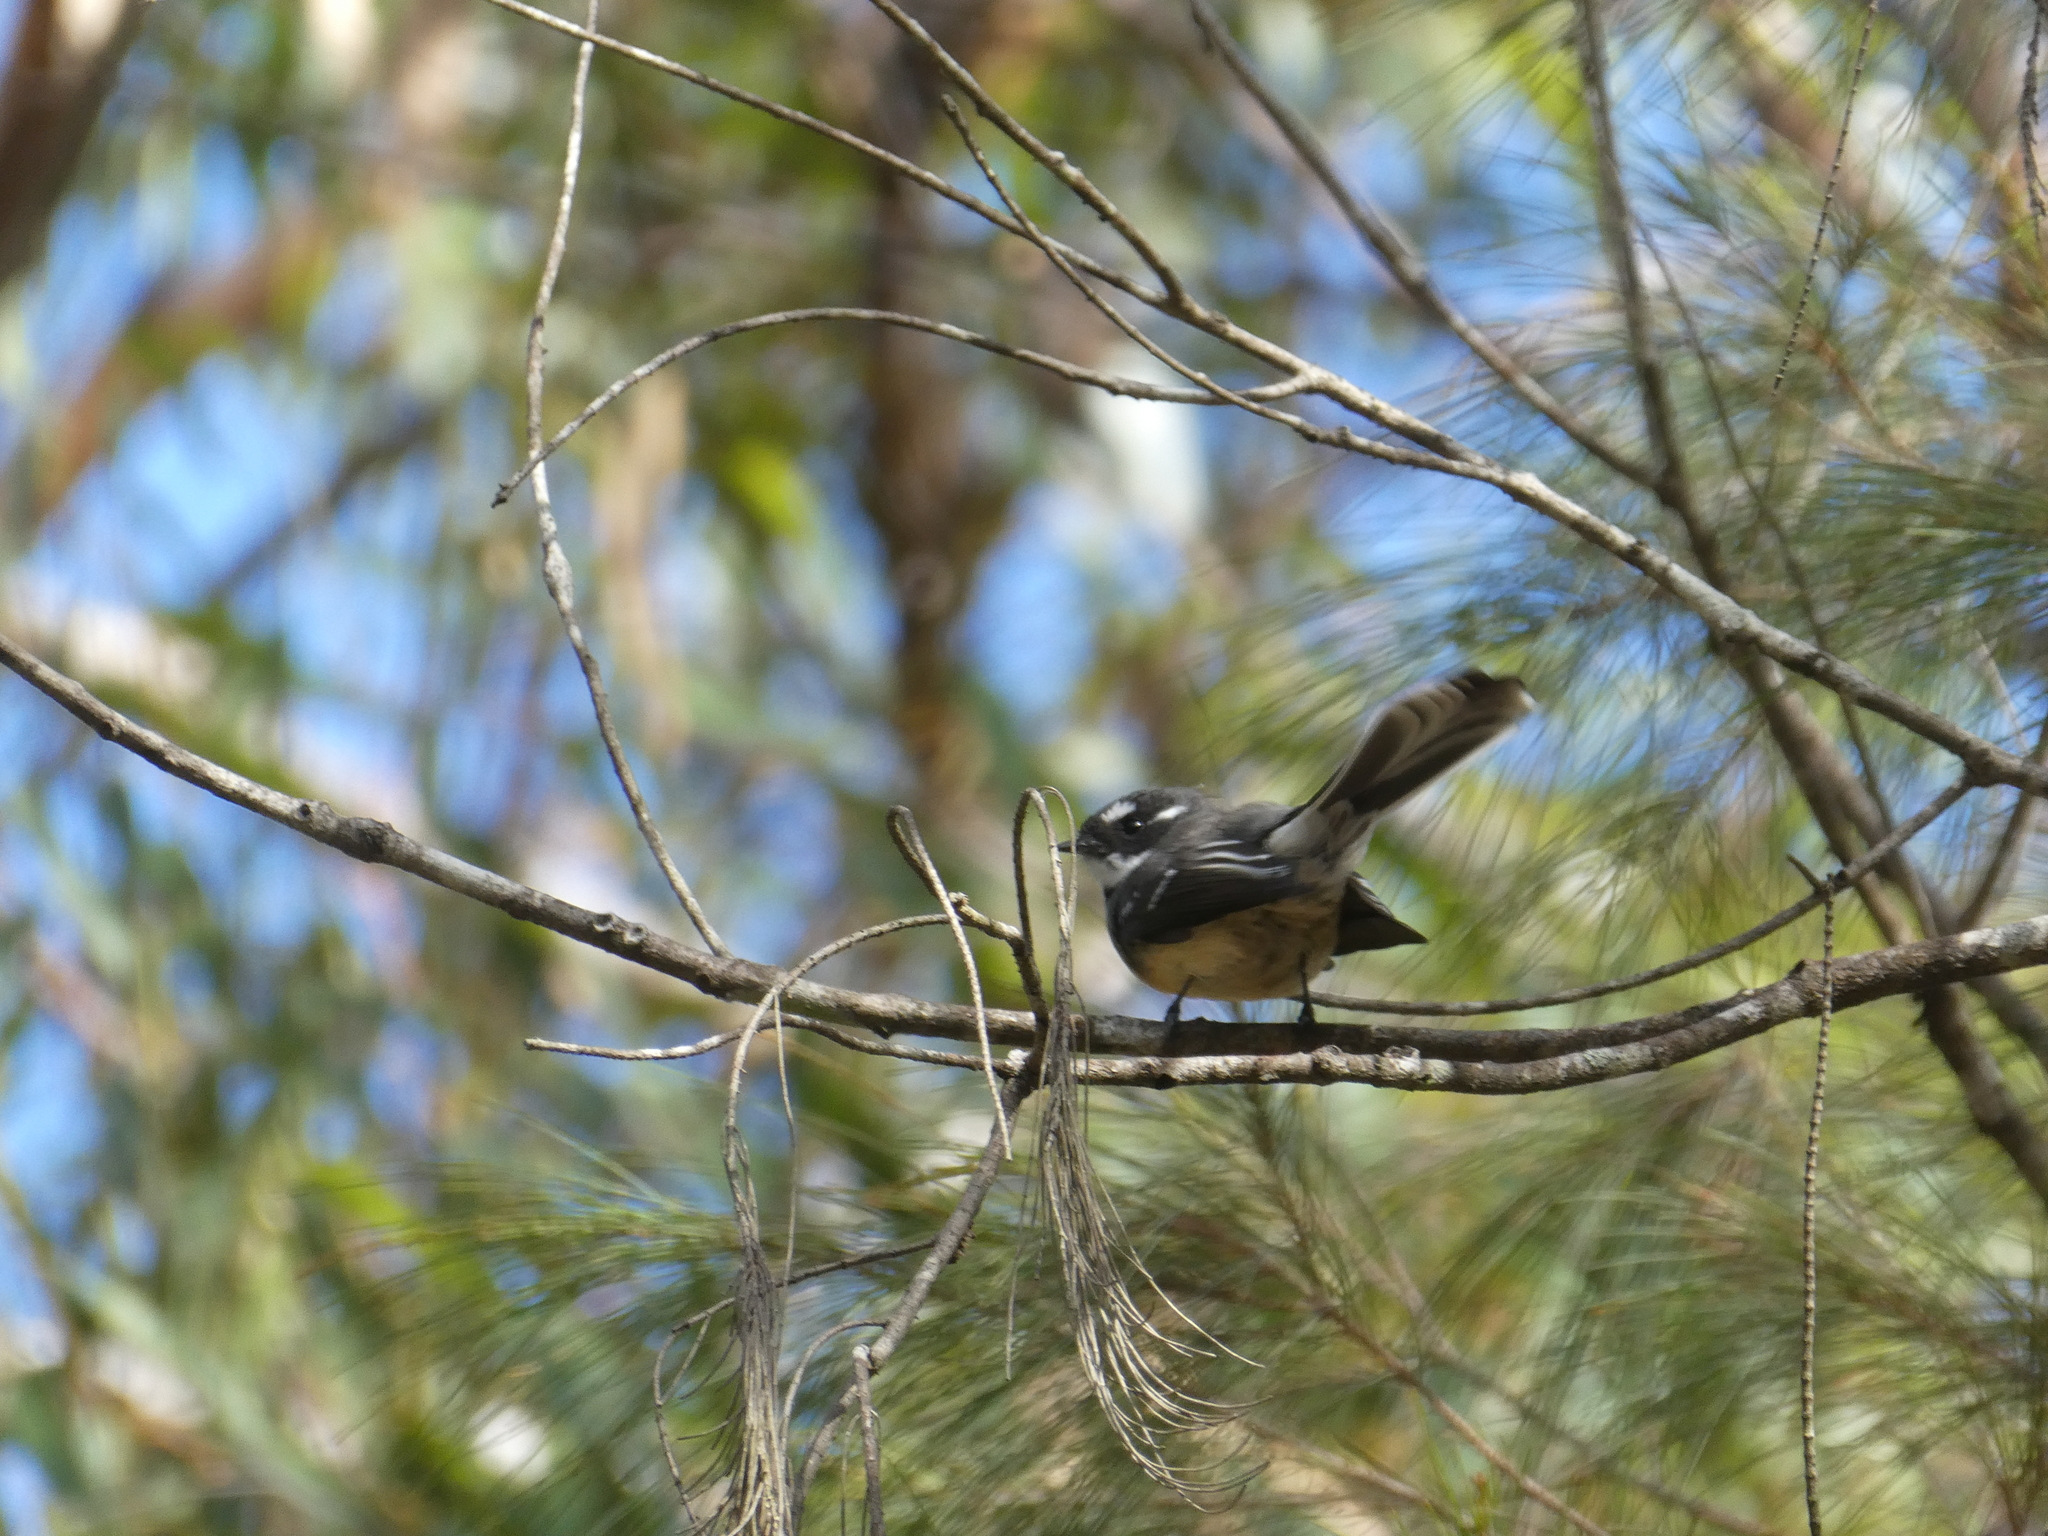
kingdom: Animalia
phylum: Chordata
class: Aves
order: Passeriformes
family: Rhipiduridae
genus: Rhipidura
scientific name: Rhipidura albiscapa
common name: Grey fantail
